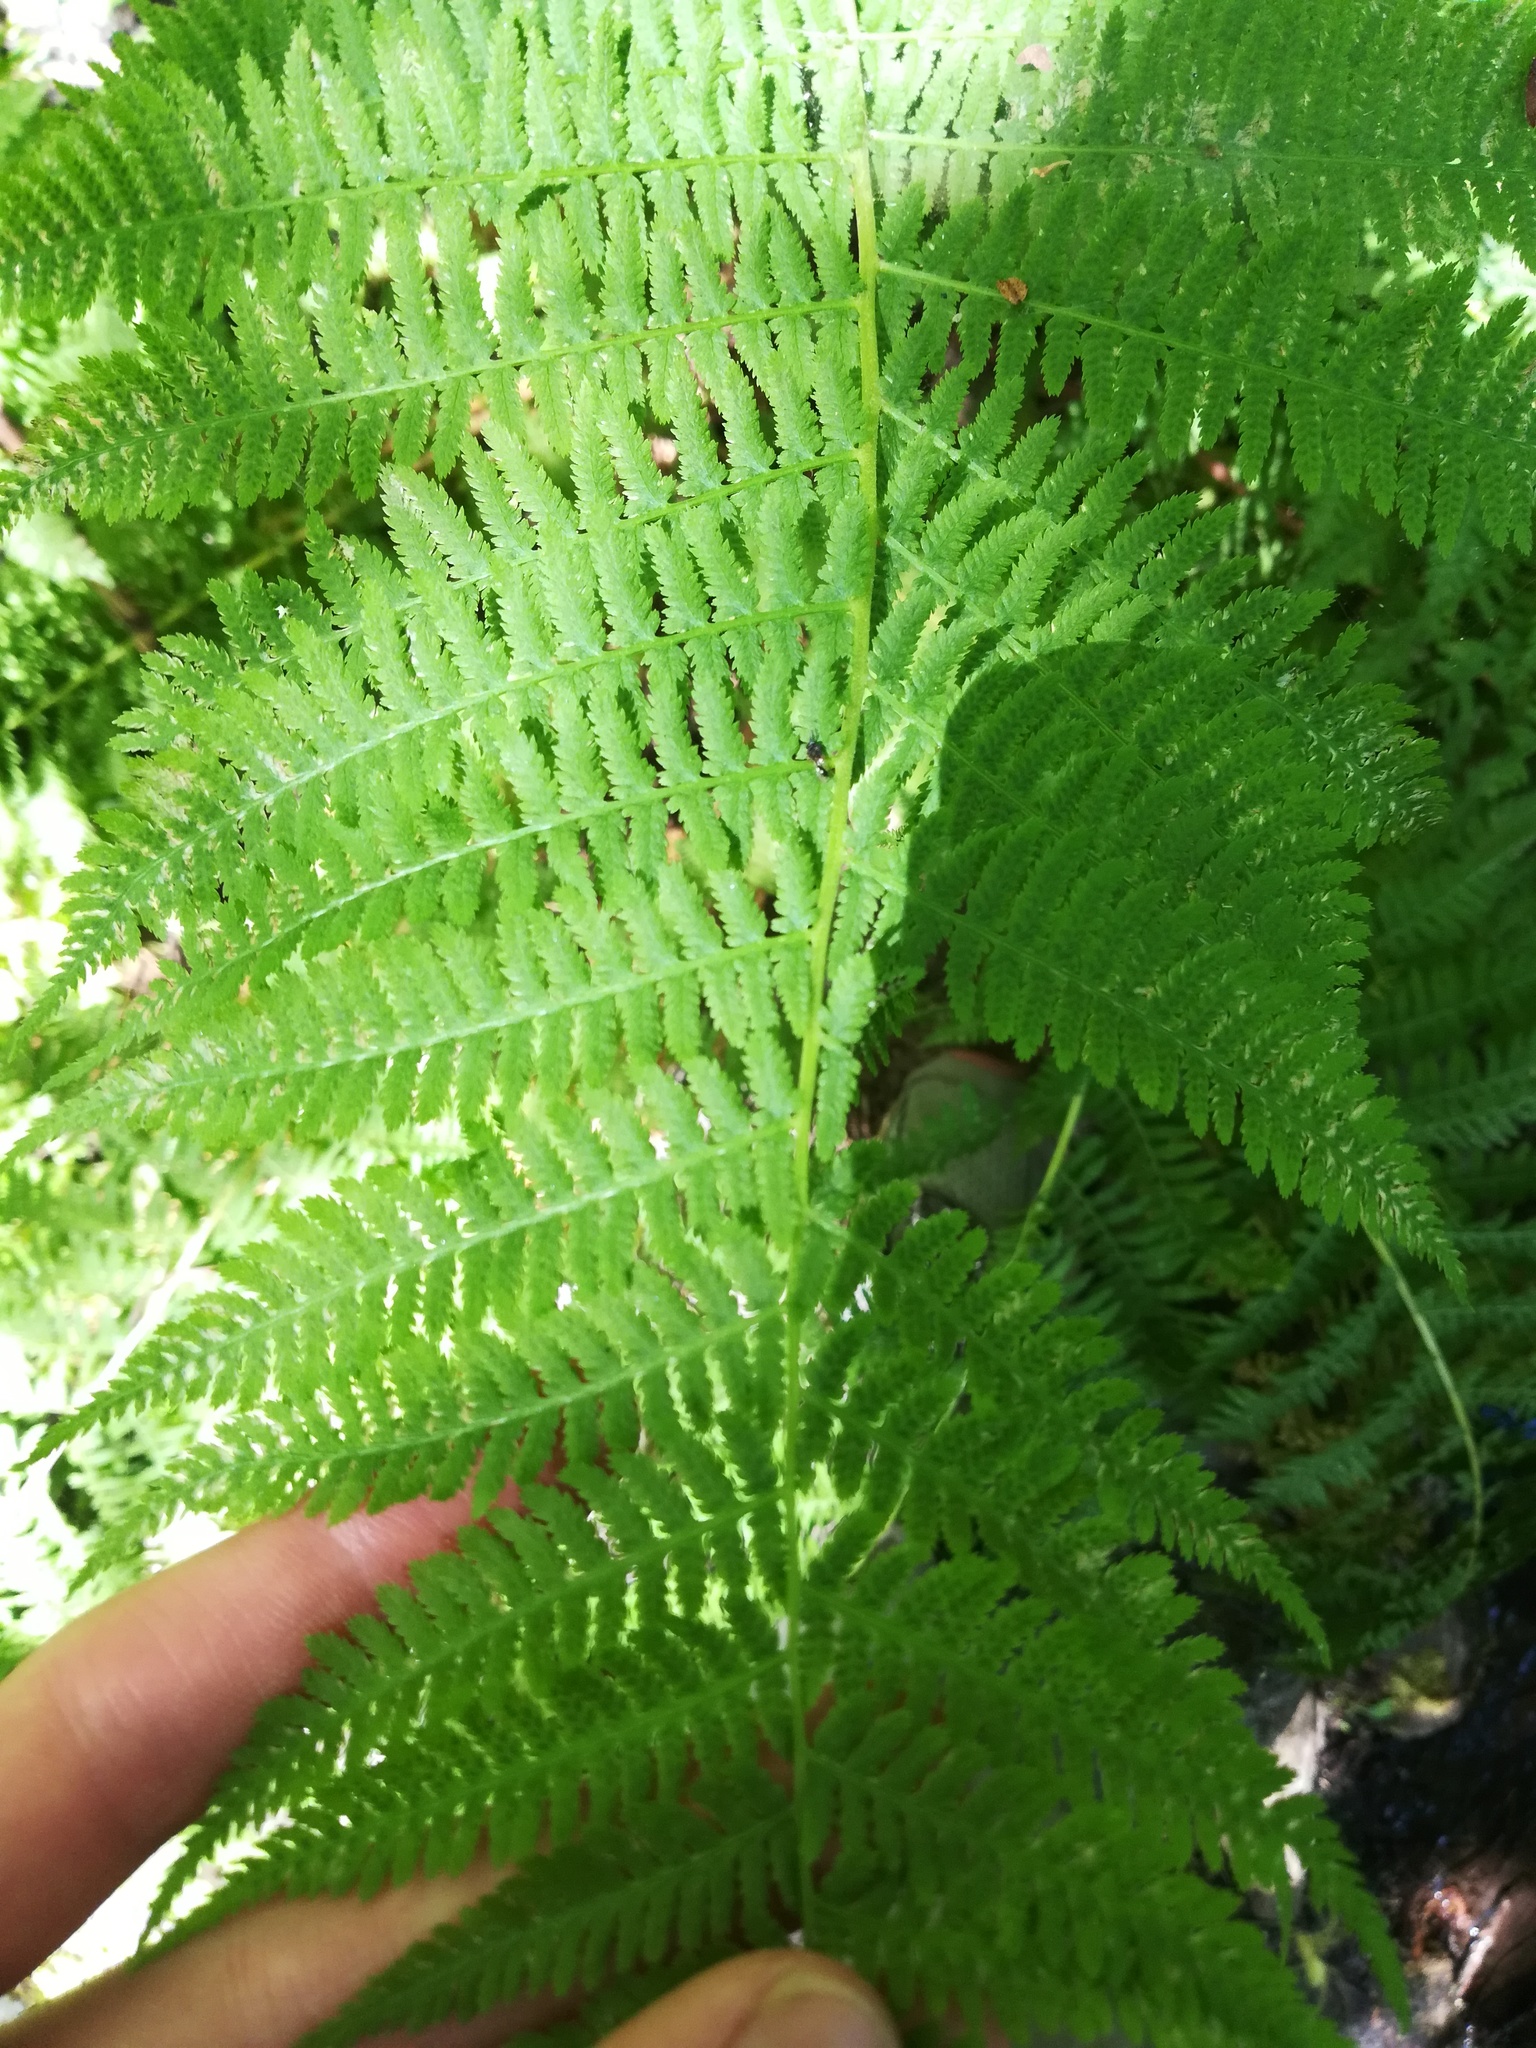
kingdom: Plantae
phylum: Tracheophyta
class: Polypodiopsida
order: Polypodiales
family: Athyriaceae
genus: Athyrium
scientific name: Athyrium cyclosorum
